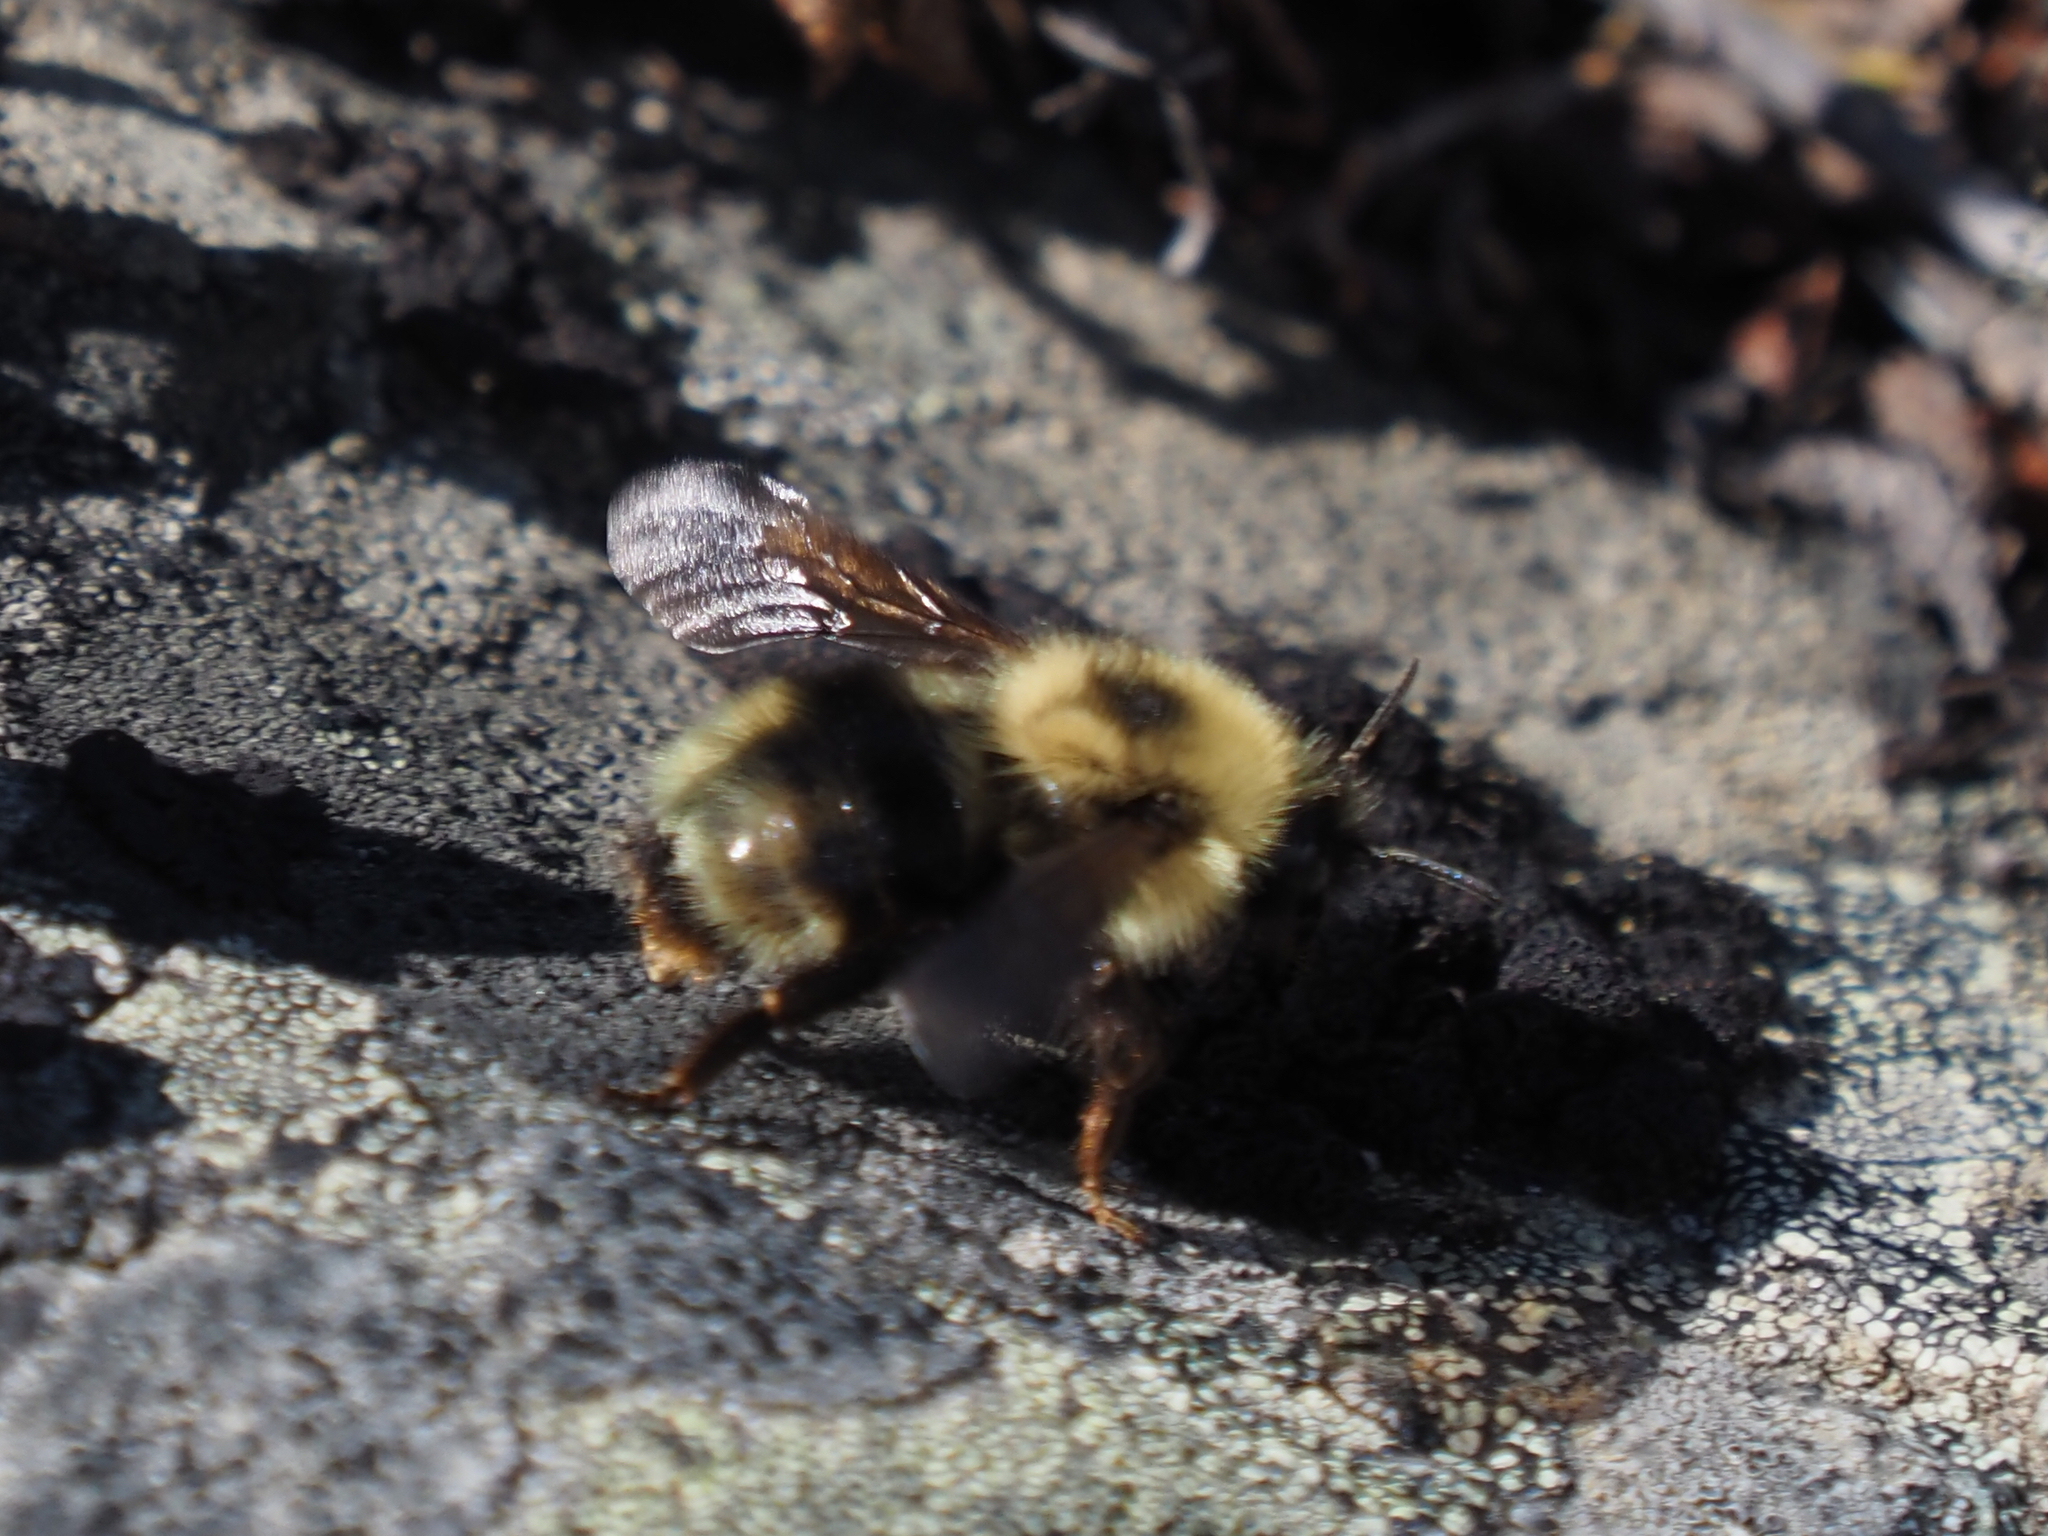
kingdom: Animalia
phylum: Arthropoda
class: Insecta
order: Hymenoptera
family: Apidae
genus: Bombus
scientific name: Bombus flavidus
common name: Fernald cuckoo bumble bee
